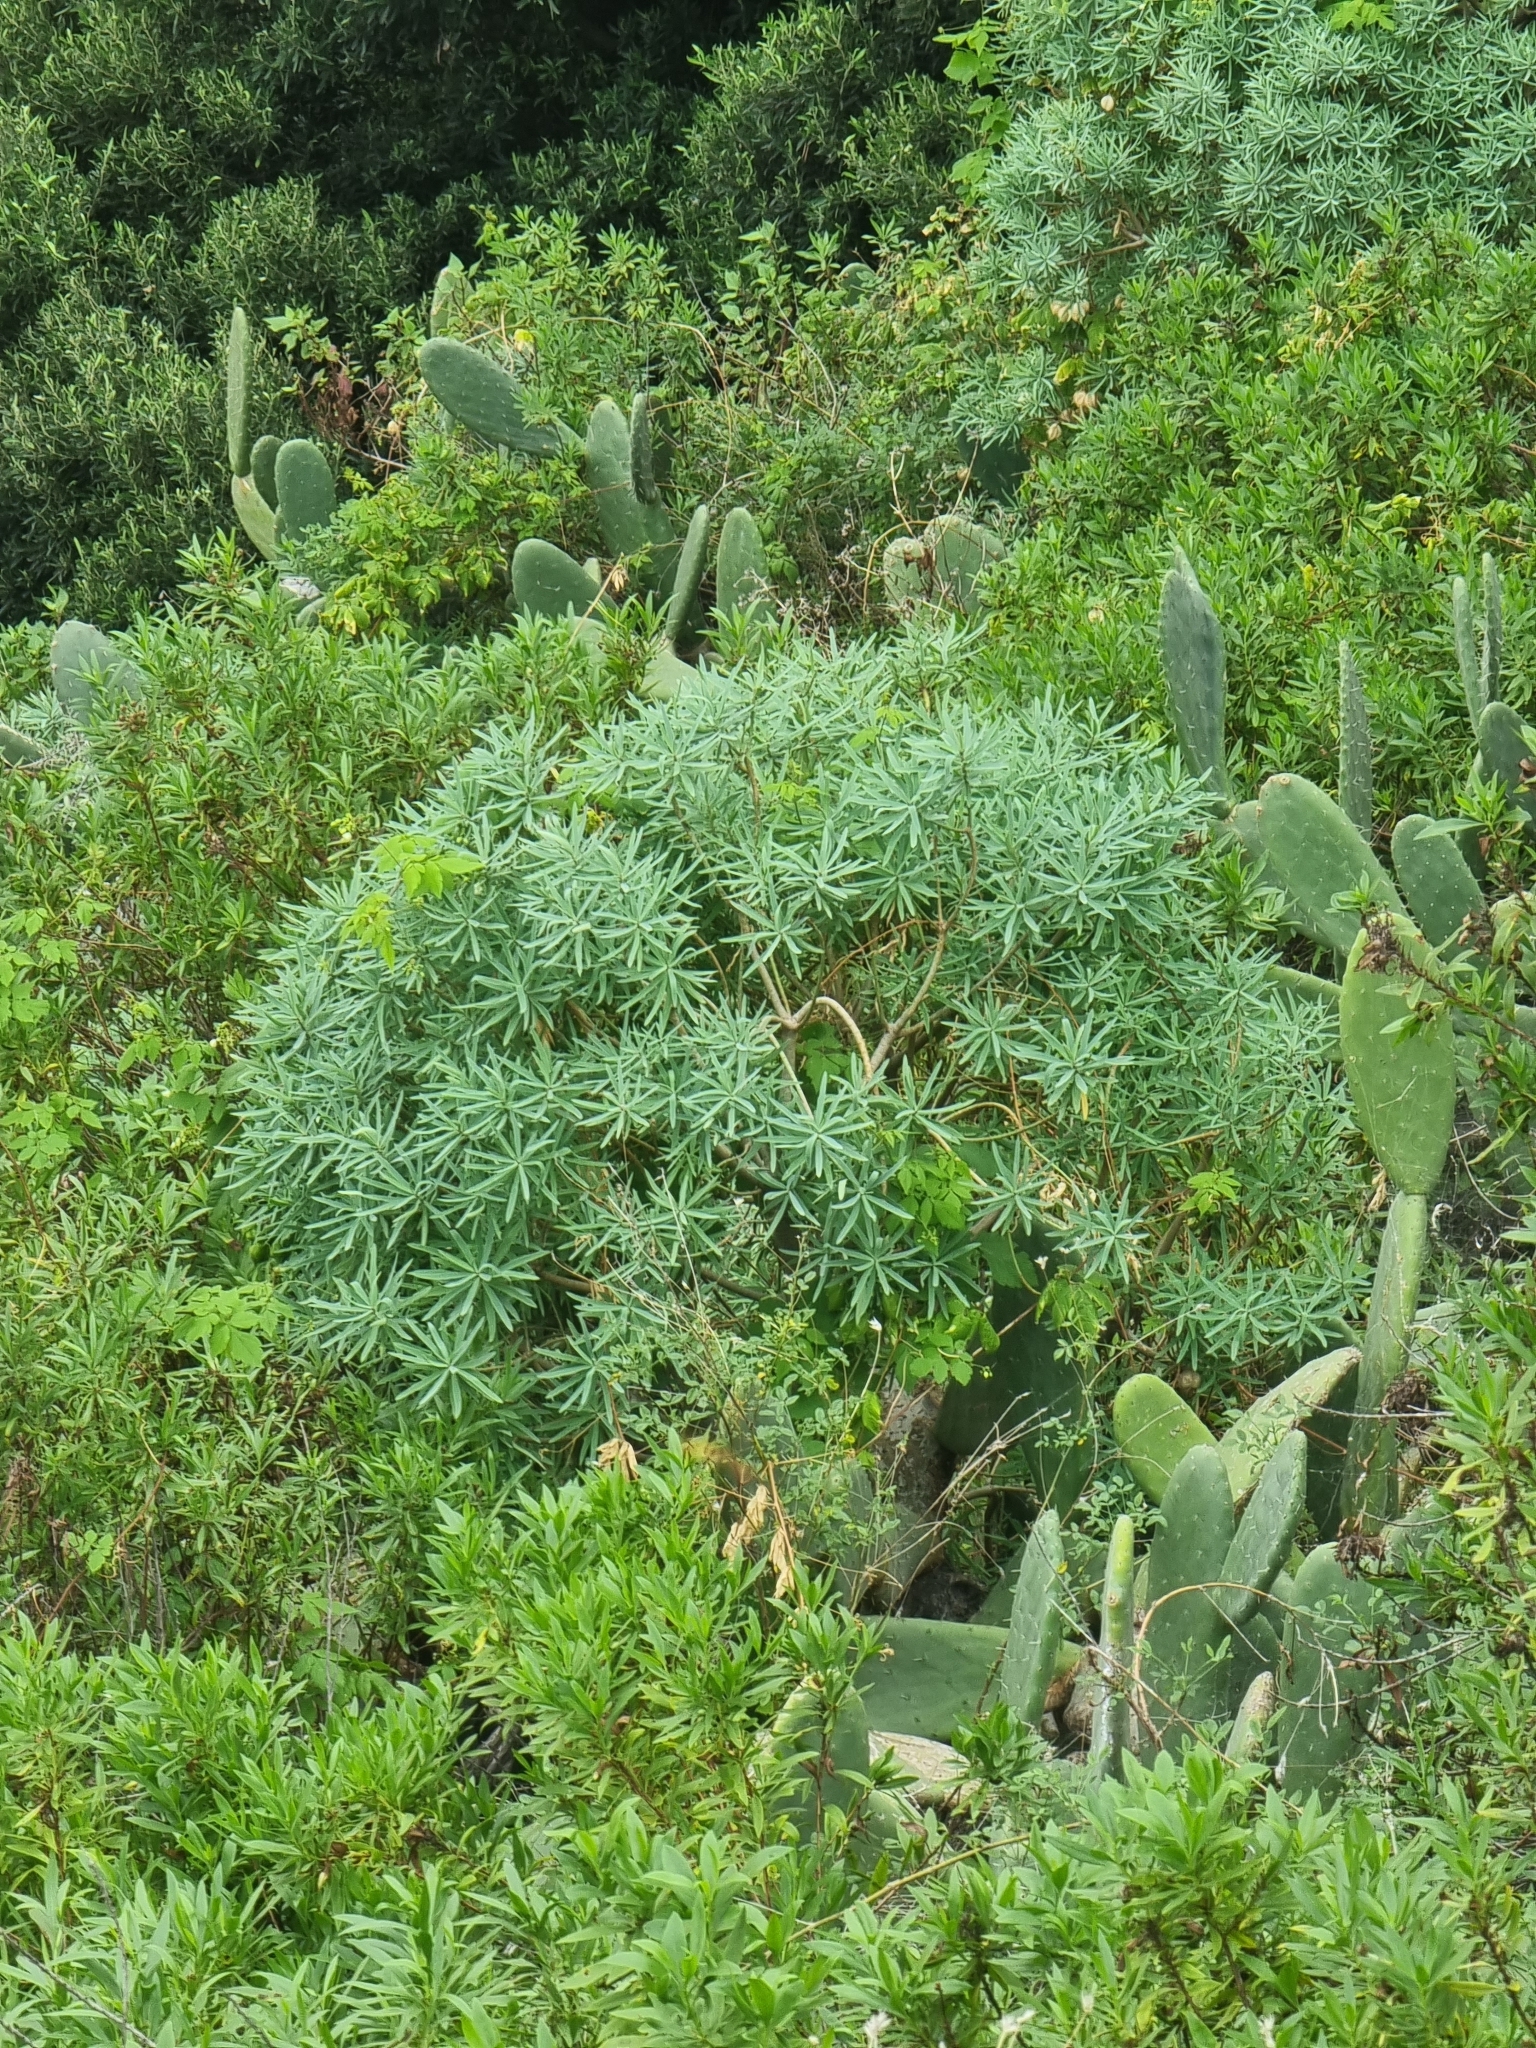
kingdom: Plantae
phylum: Tracheophyta
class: Magnoliopsida
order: Malpighiales
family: Euphorbiaceae
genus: Euphorbia
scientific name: Euphorbia piscatoria
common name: Fish-stunning spurge
